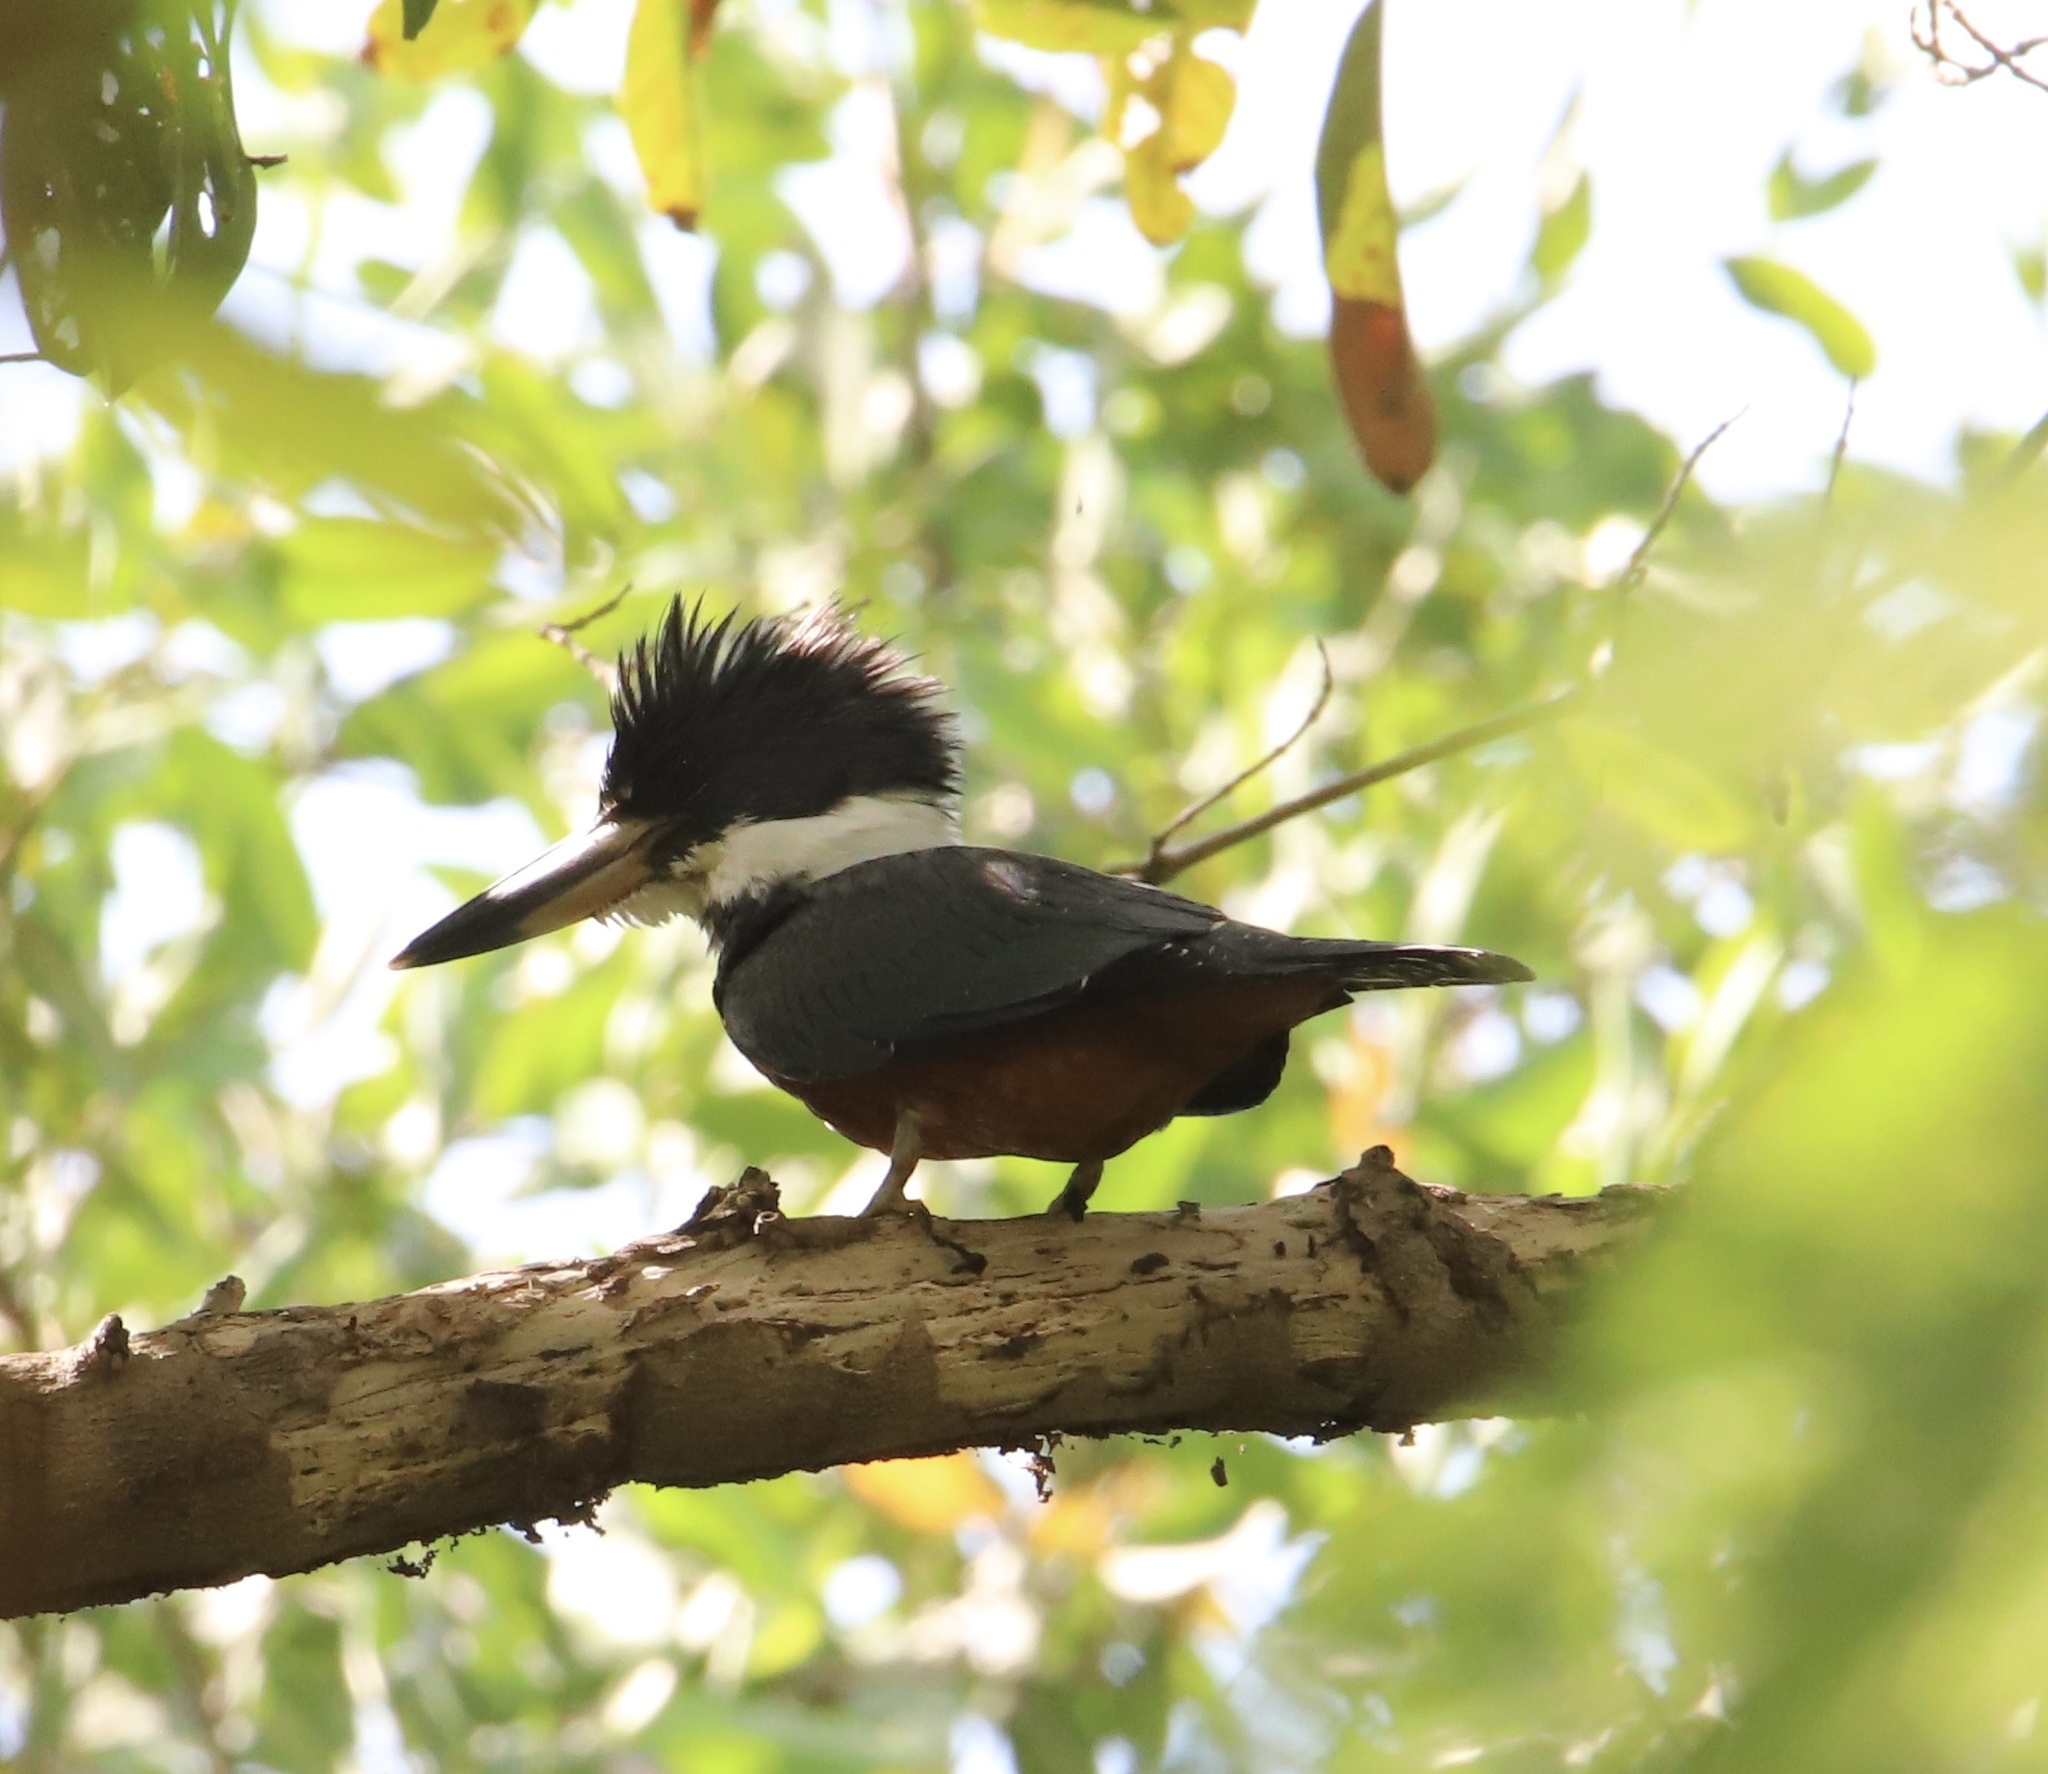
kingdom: Animalia
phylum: Chordata
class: Aves
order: Coraciiformes
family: Alcedinidae
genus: Megaceryle
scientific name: Megaceryle torquata
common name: Ringed kingfisher
